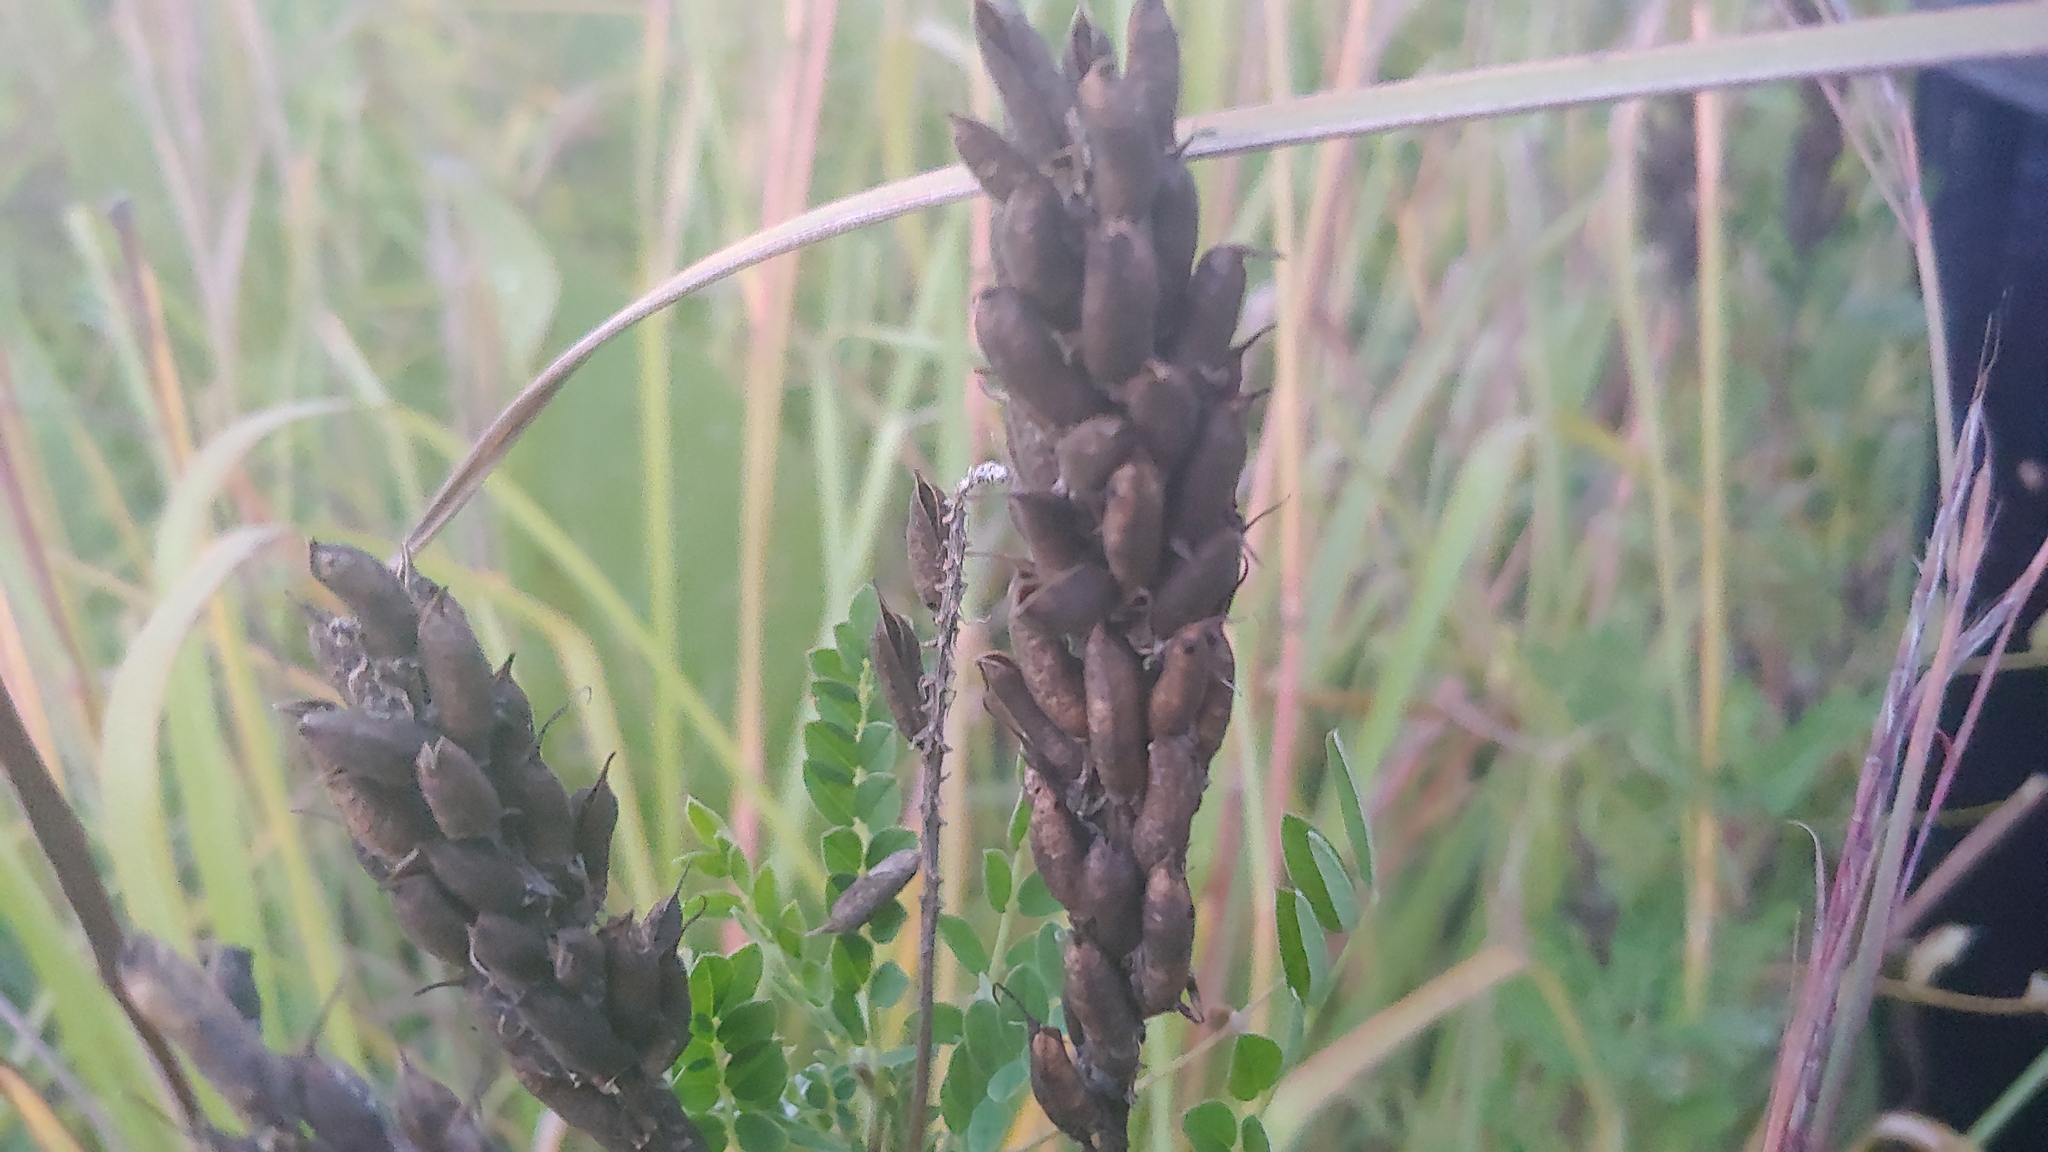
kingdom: Plantae
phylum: Tracheophyta
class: Magnoliopsida
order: Fabales
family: Fabaceae
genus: Astragalus
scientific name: Astragalus canadensis
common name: Canada milk-vetch
